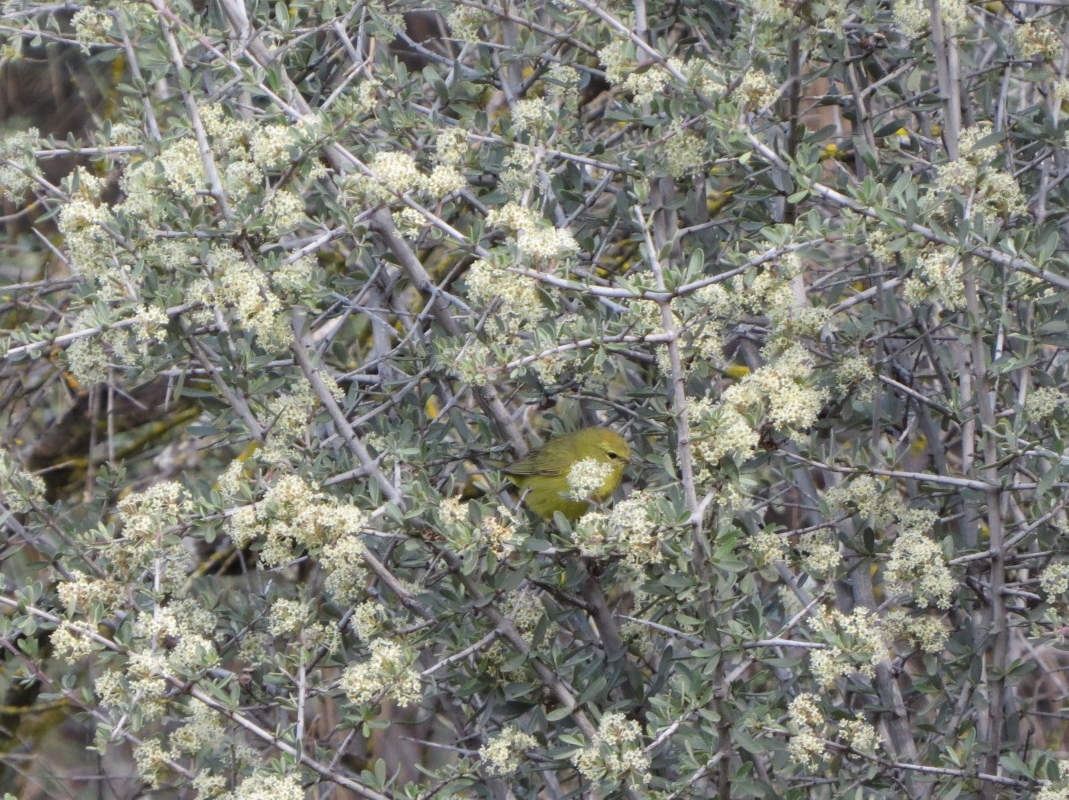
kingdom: Animalia
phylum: Chordata
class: Aves
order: Passeriformes
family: Parulidae
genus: Leiothlypis
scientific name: Leiothlypis celata
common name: Orange-crowned warbler
